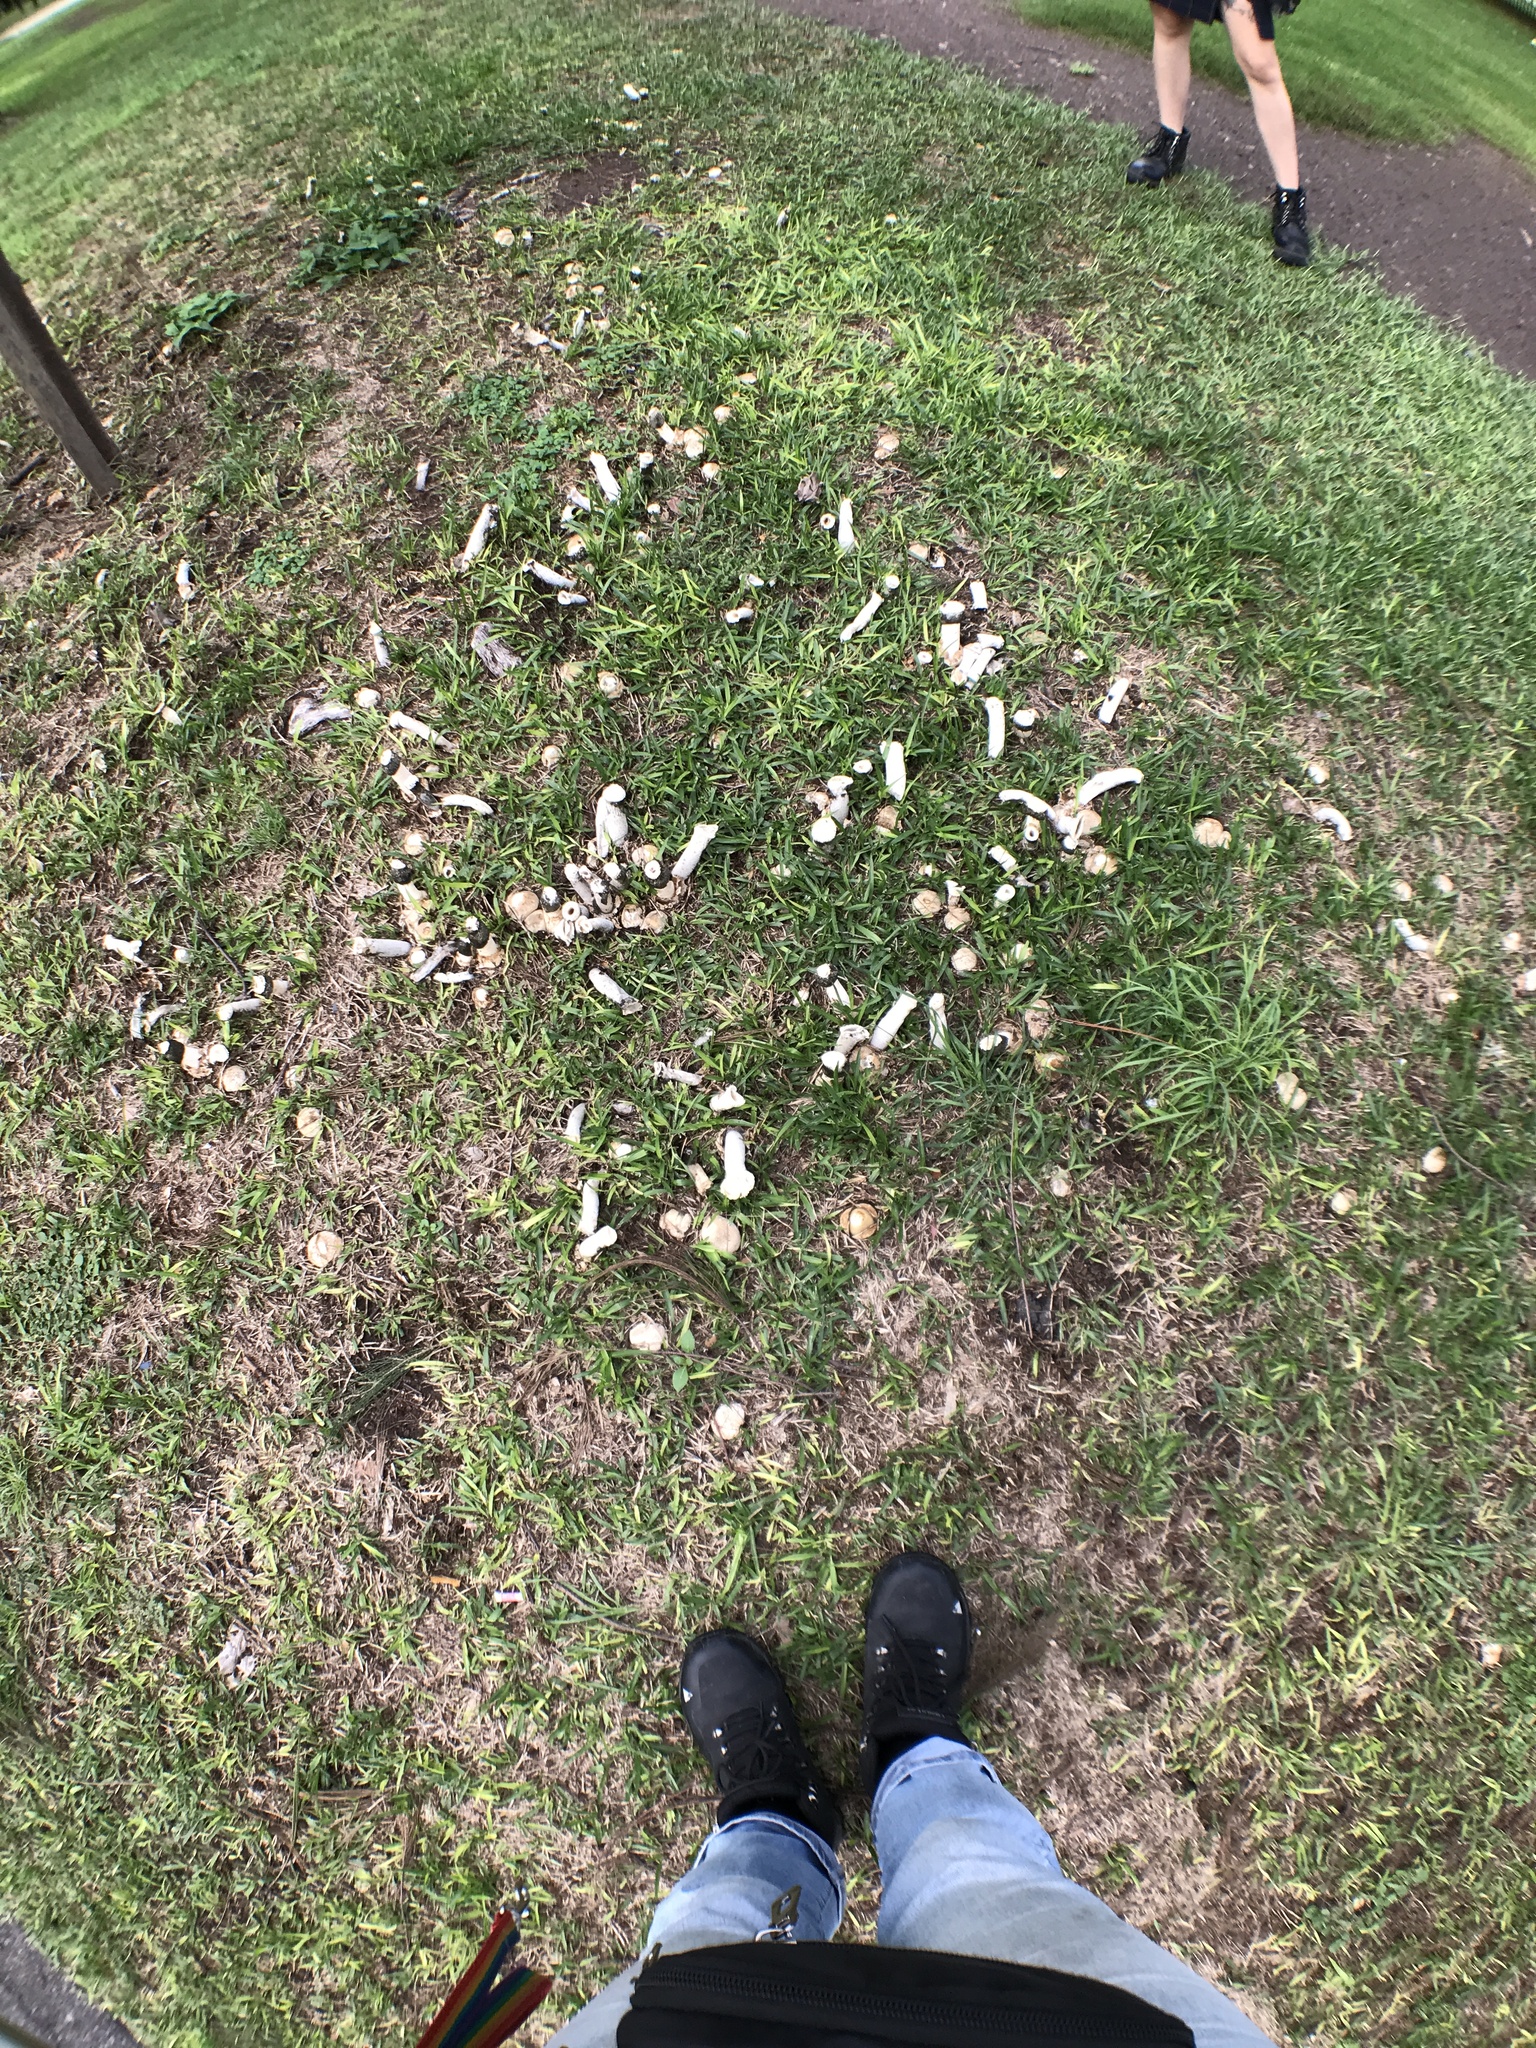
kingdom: Fungi
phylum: Basidiomycota
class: Agaricomycetes
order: Phallales
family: Phallaceae
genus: Itajahya
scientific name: Itajahya galericulata
